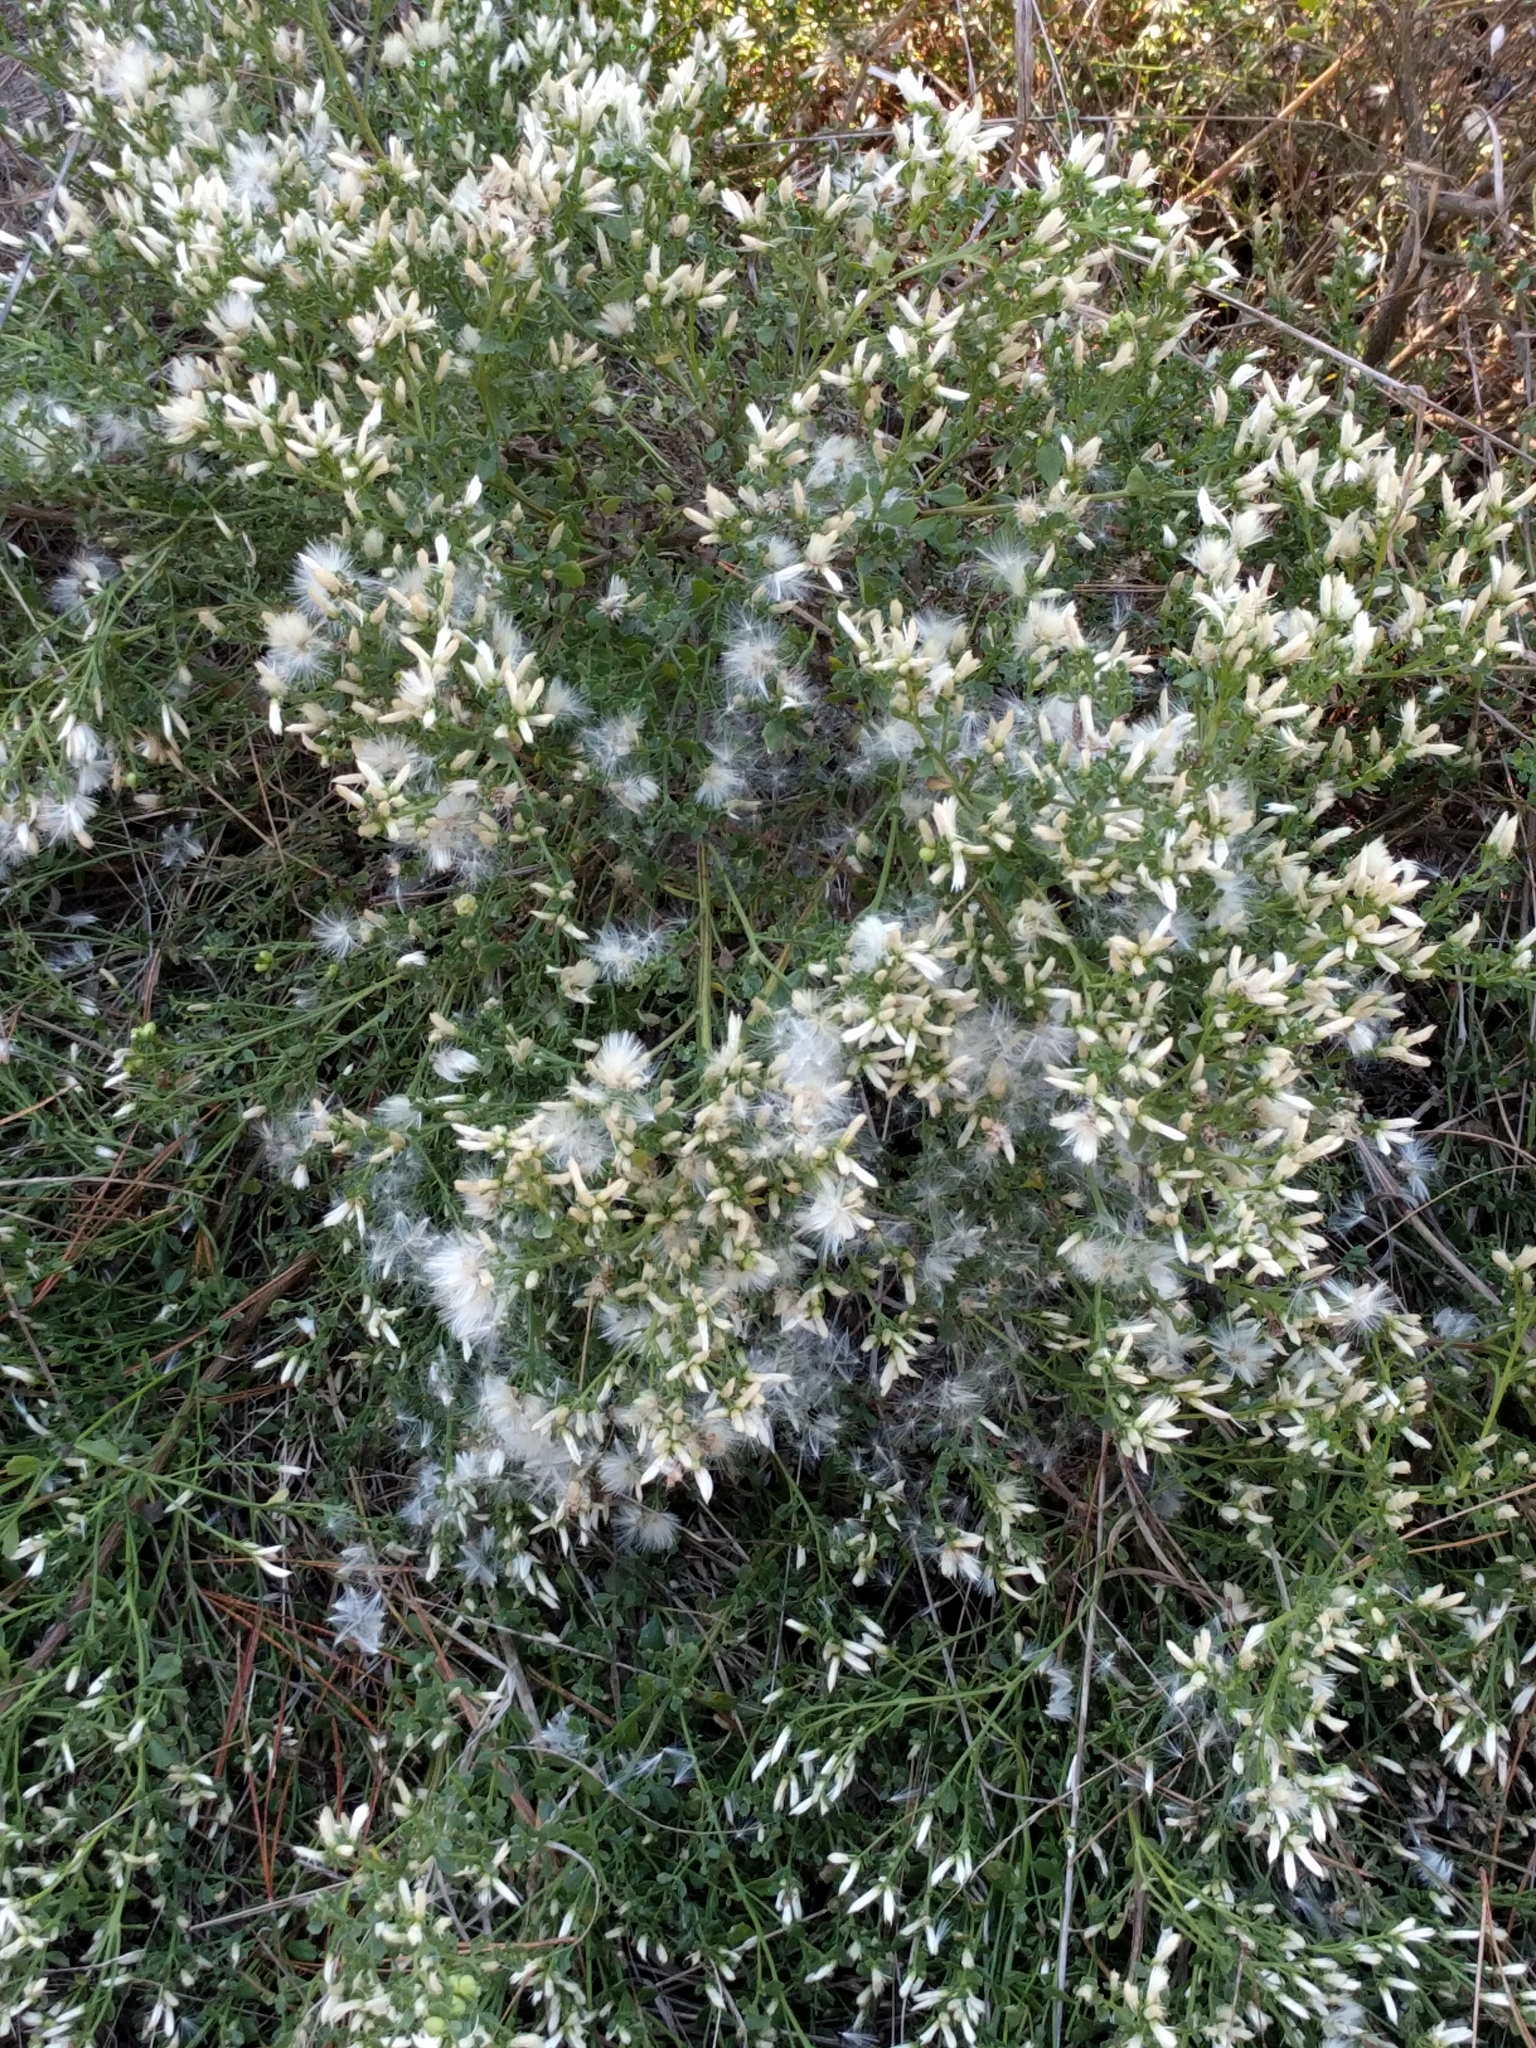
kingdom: Plantae
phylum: Tracheophyta
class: Magnoliopsida
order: Asterales
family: Asteraceae
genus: Baccharis
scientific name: Baccharis pilularis
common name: Coyotebrush
